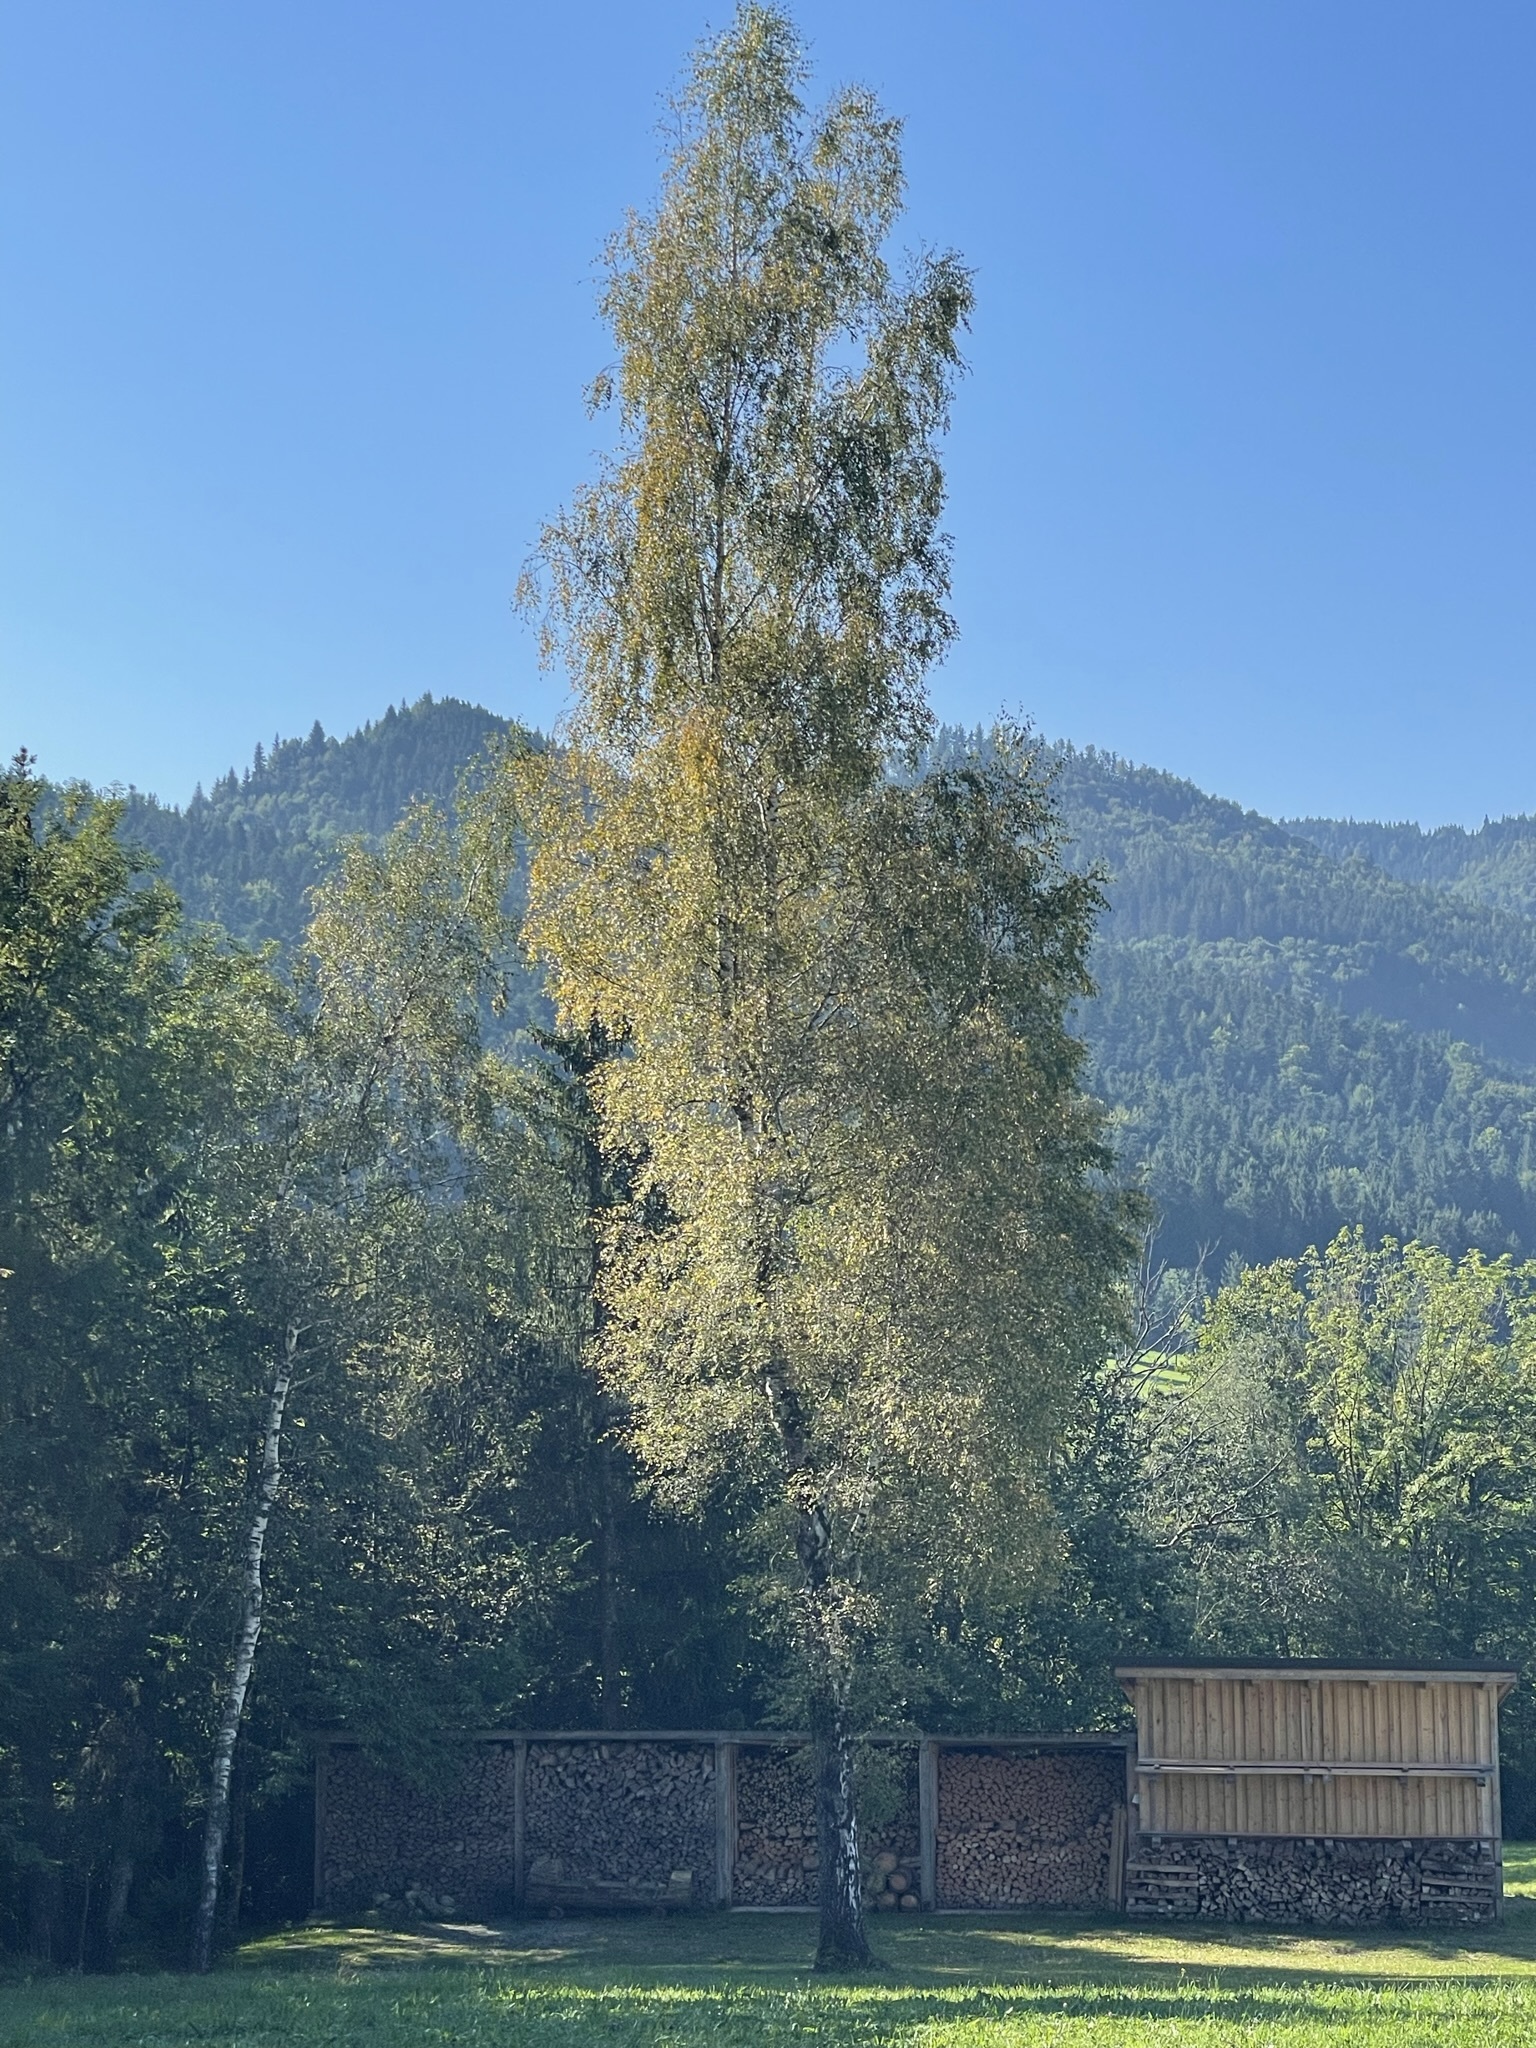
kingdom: Plantae
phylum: Tracheophyta
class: Magnoliopsida
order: Fagales
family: Betulaceae
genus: Betula
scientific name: Betula pendula
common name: Silver birch
